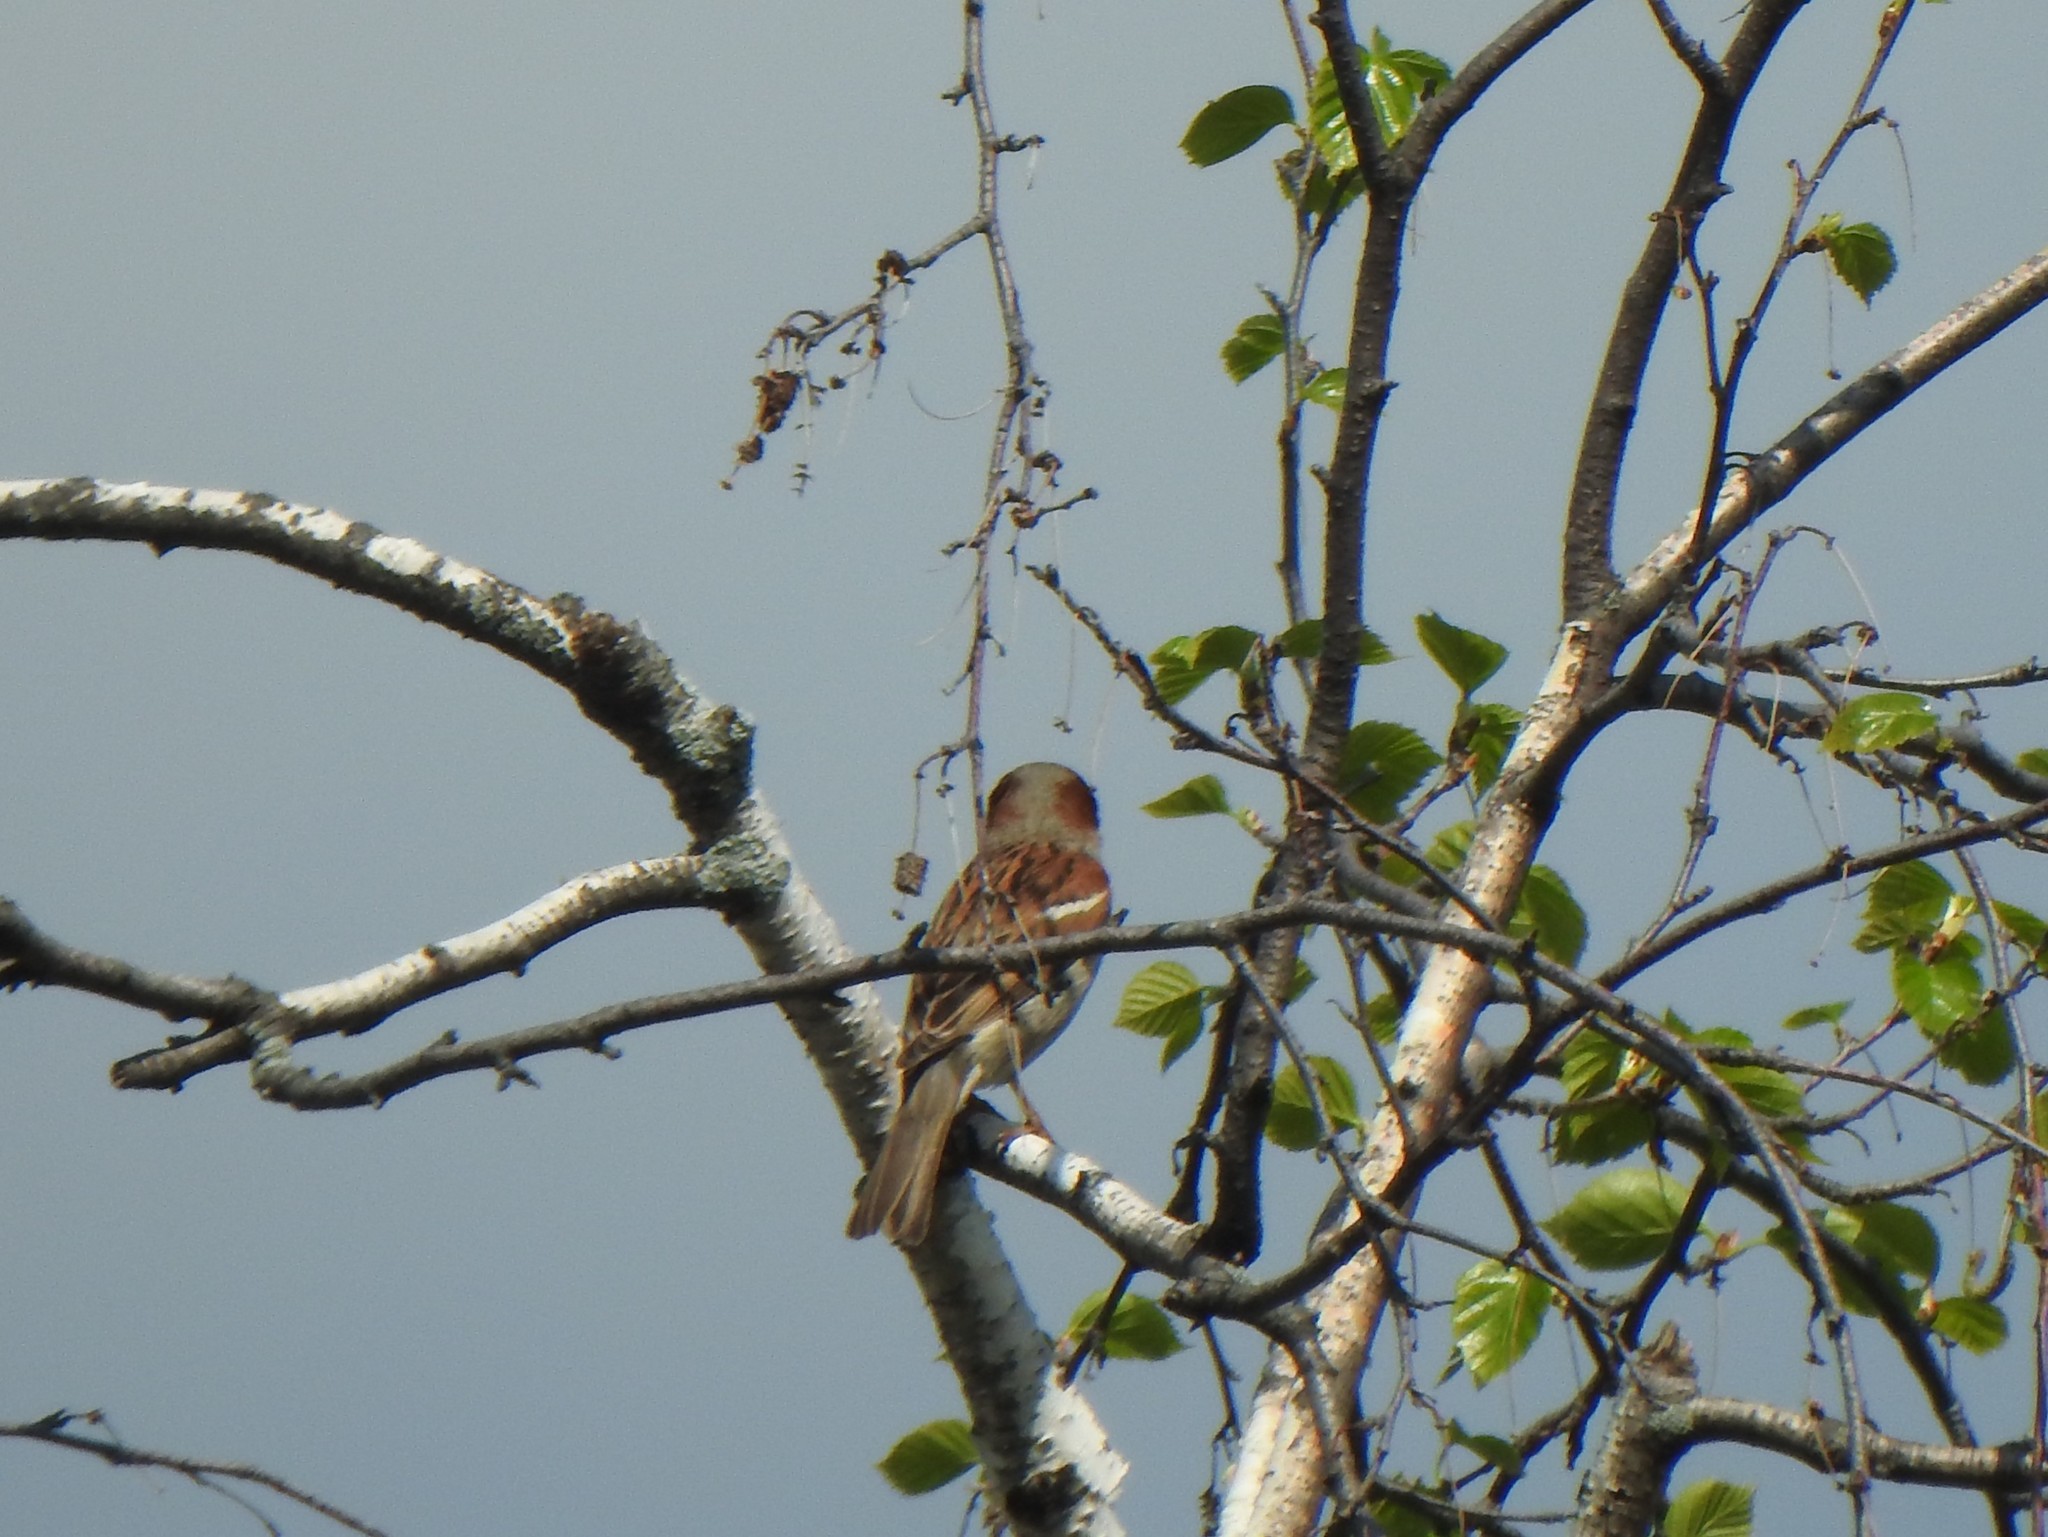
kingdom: Animalia
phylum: Chordata
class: Aves
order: Passeriformes
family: Passeridae
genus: Passer
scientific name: Passer domesticus
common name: House sparrow
